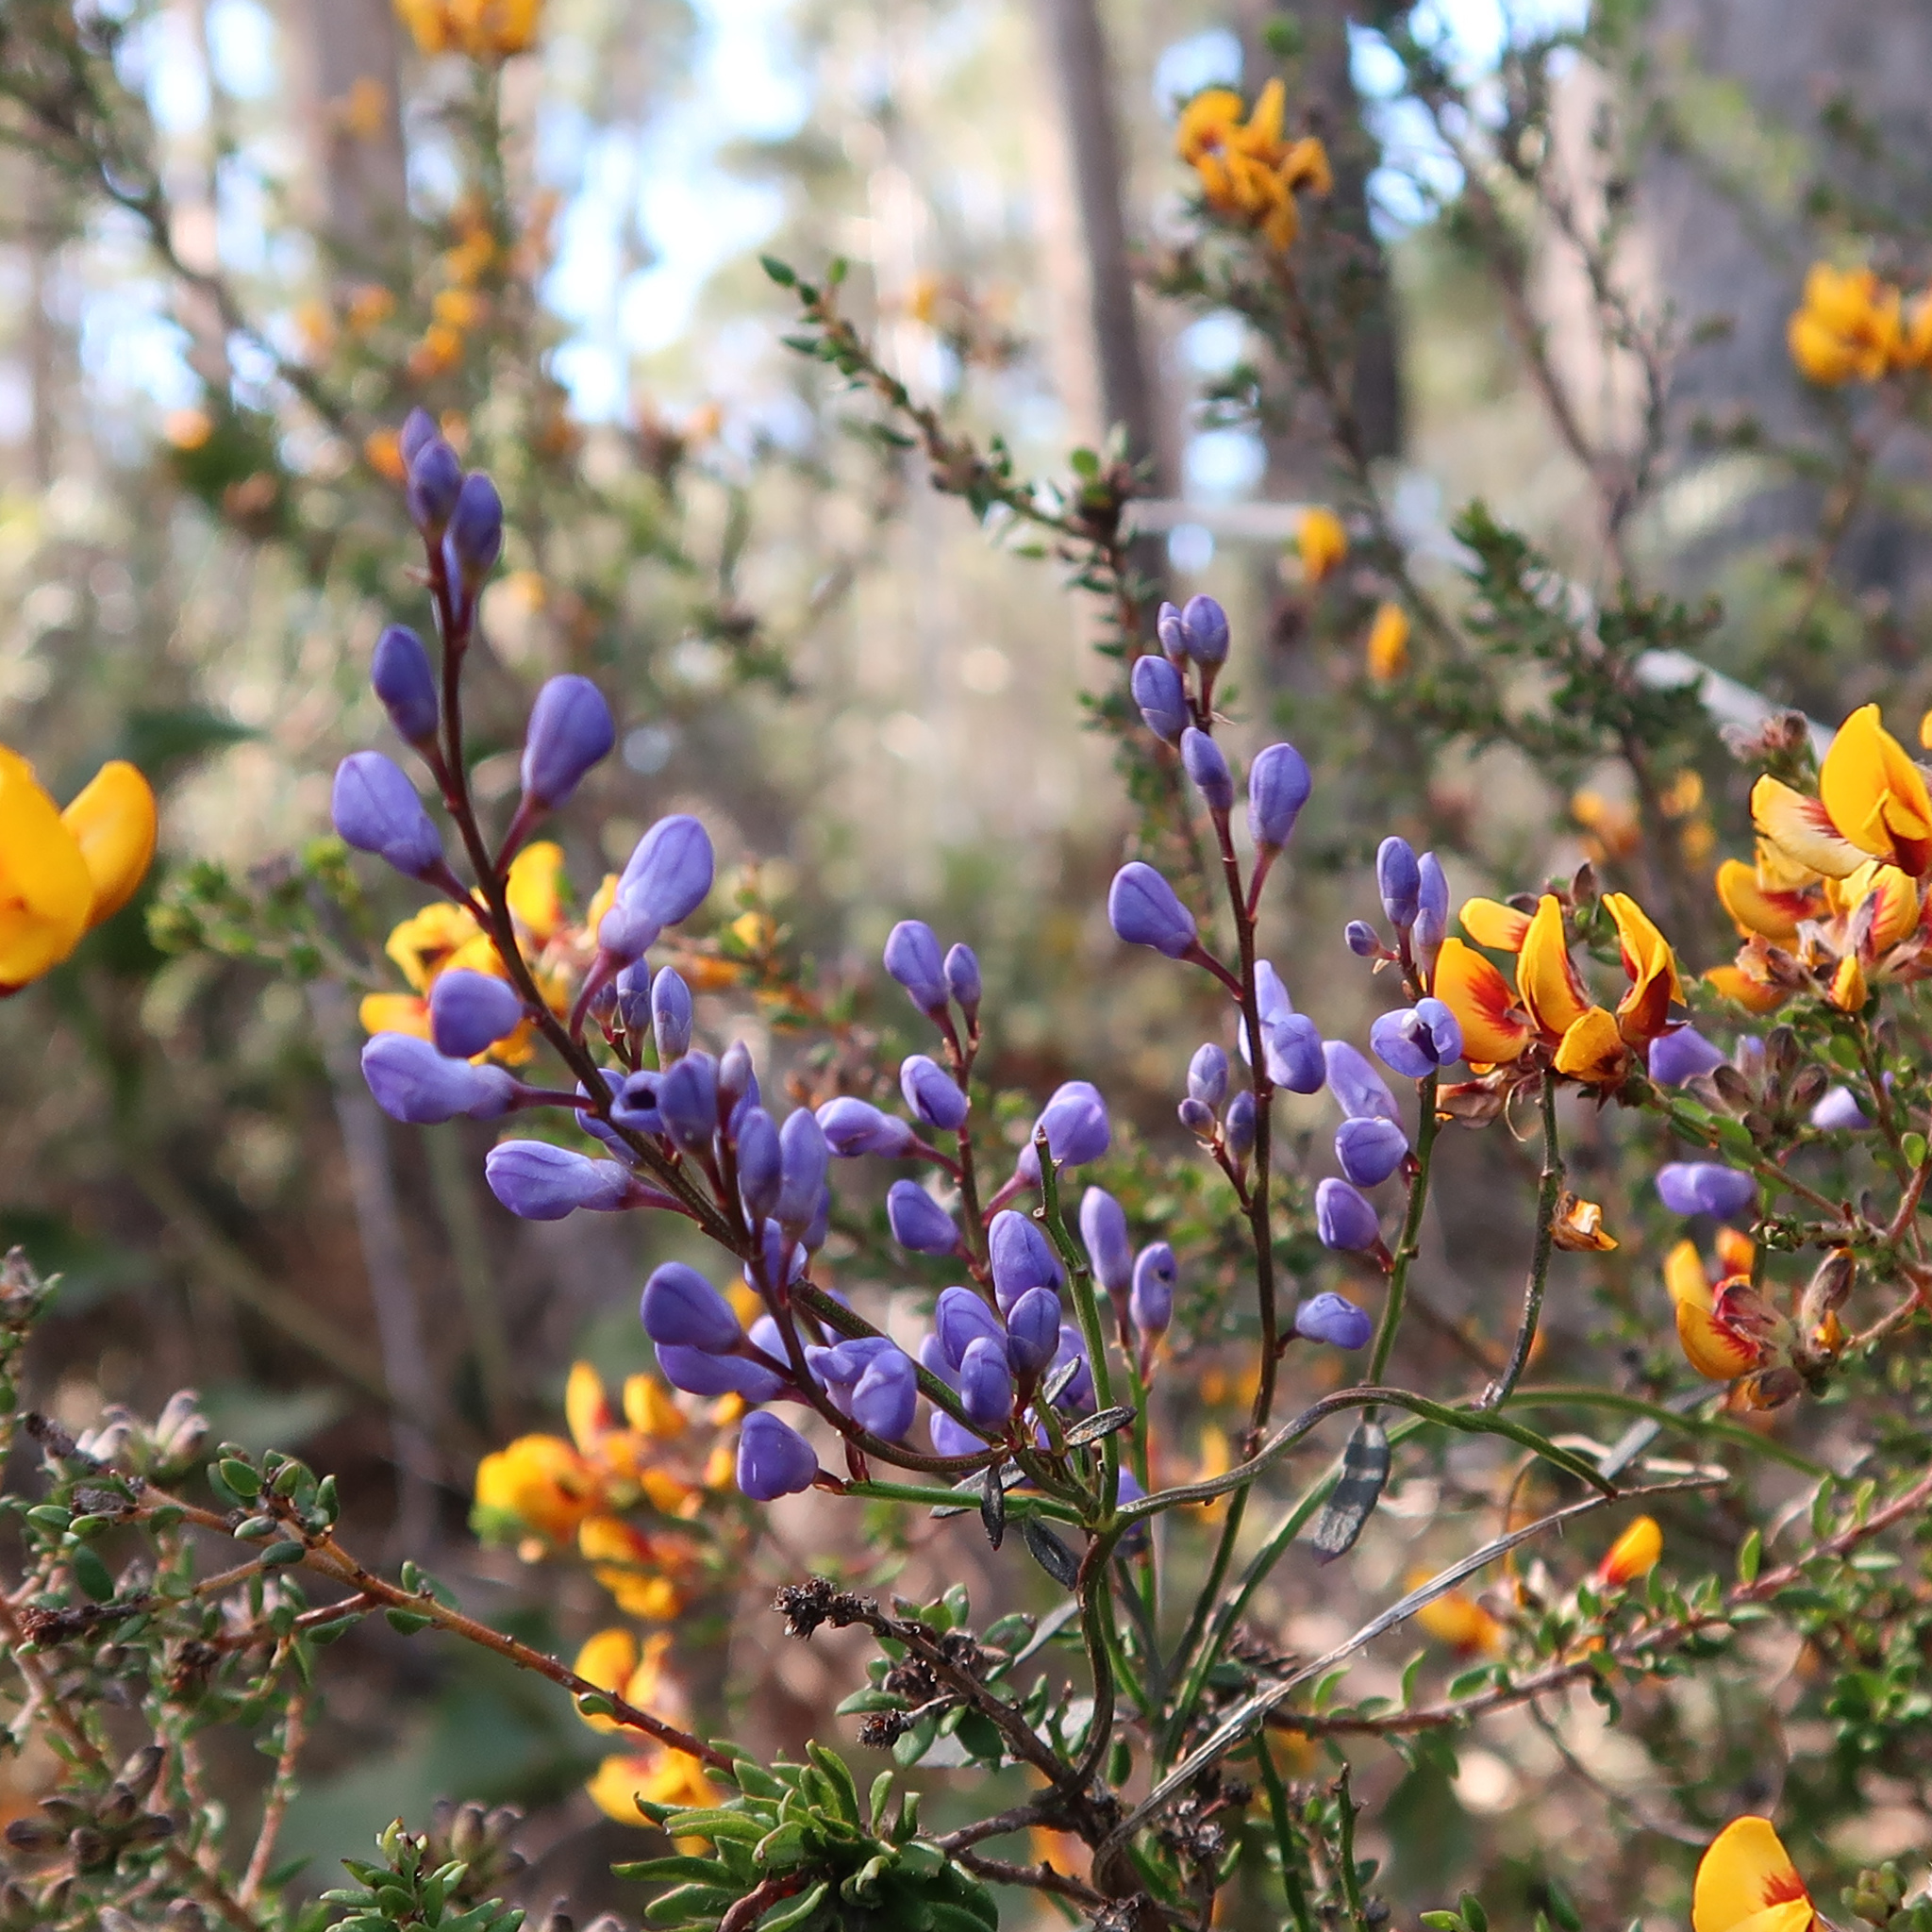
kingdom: Plantae
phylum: Tracheophyta
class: Magnoliopsida
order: Fabales
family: Polygalaceae
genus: Comesperma
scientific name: Comesperma volubile
